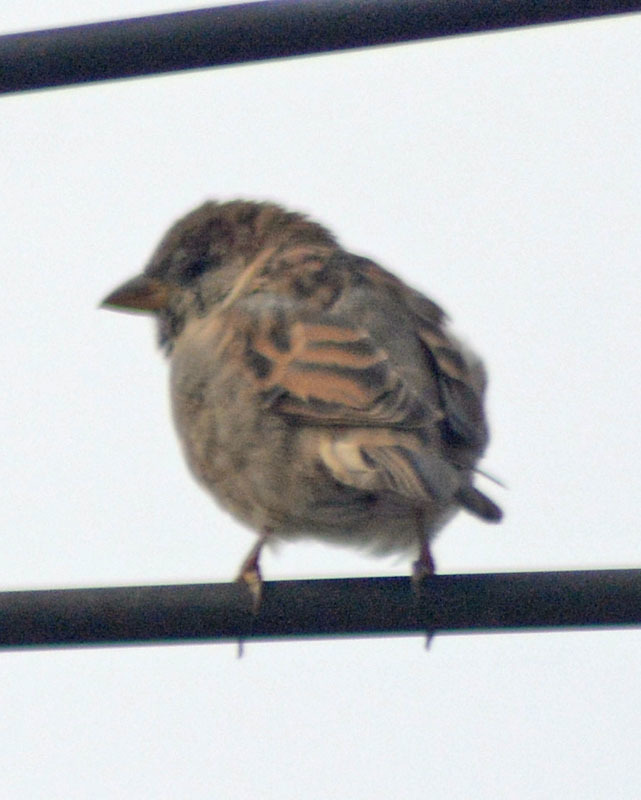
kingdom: Animalia
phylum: Chordata
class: Aves
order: Passeriformes
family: Passeridae
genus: Passer
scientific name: Passer domesticus
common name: House sparrow
